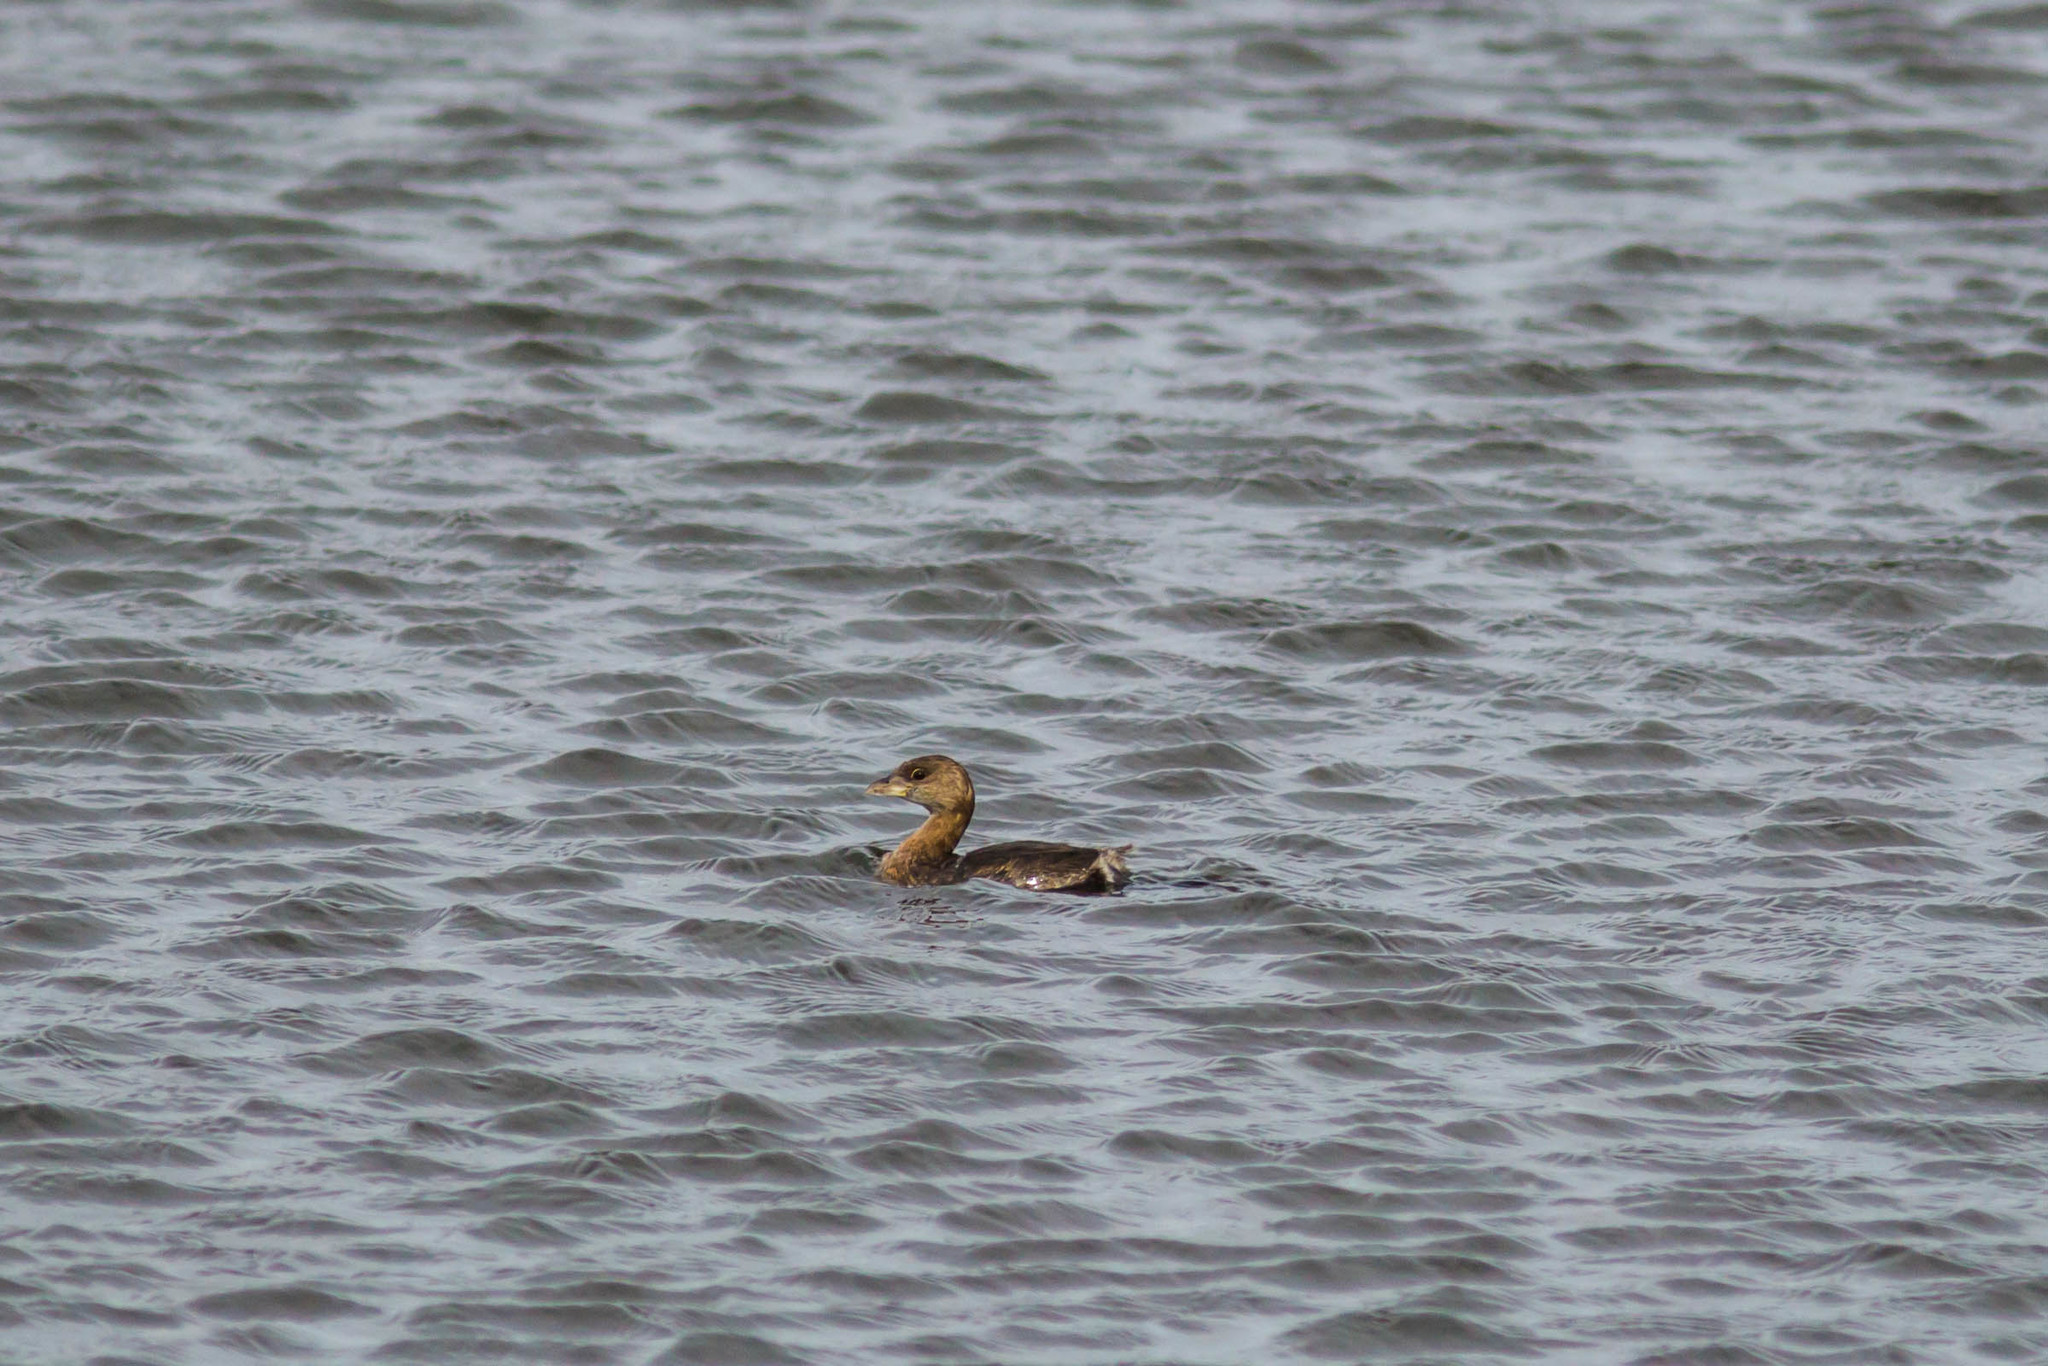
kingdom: Animalia
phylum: Chordata
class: Aves
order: Podicipediformes
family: Podicipedidae
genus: Podilymbus
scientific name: Podilymbus podiceps
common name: Pied-billed grebe
